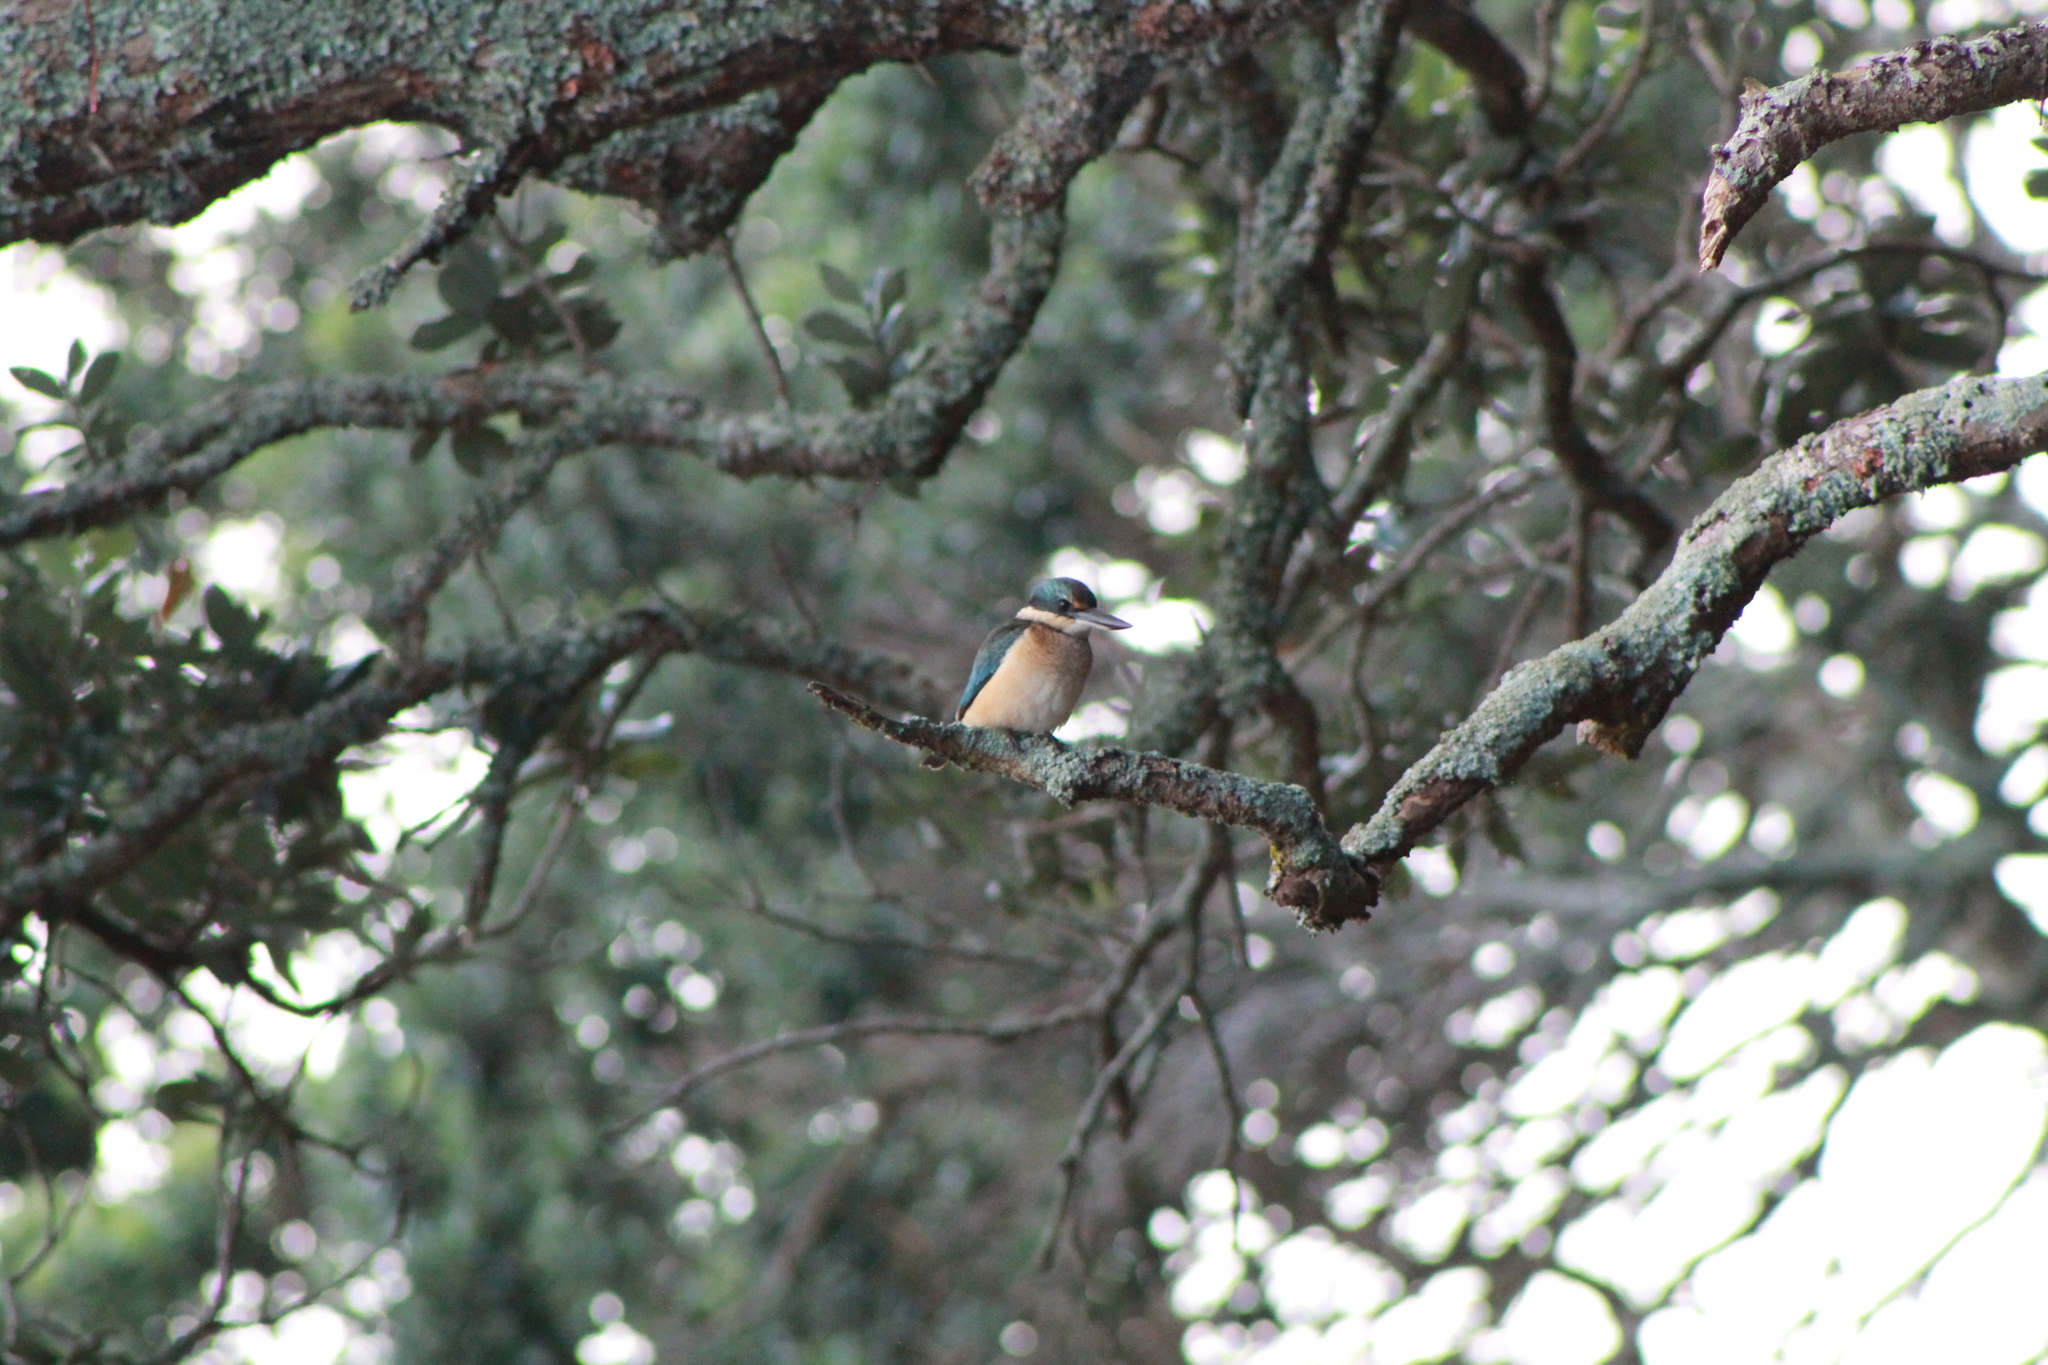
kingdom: Animalia
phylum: Chordata
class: Aves
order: Coraciiformes
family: Alcedinidae
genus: Todiramphus
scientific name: Todiramphus sanctus
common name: Sacred kingfisher
